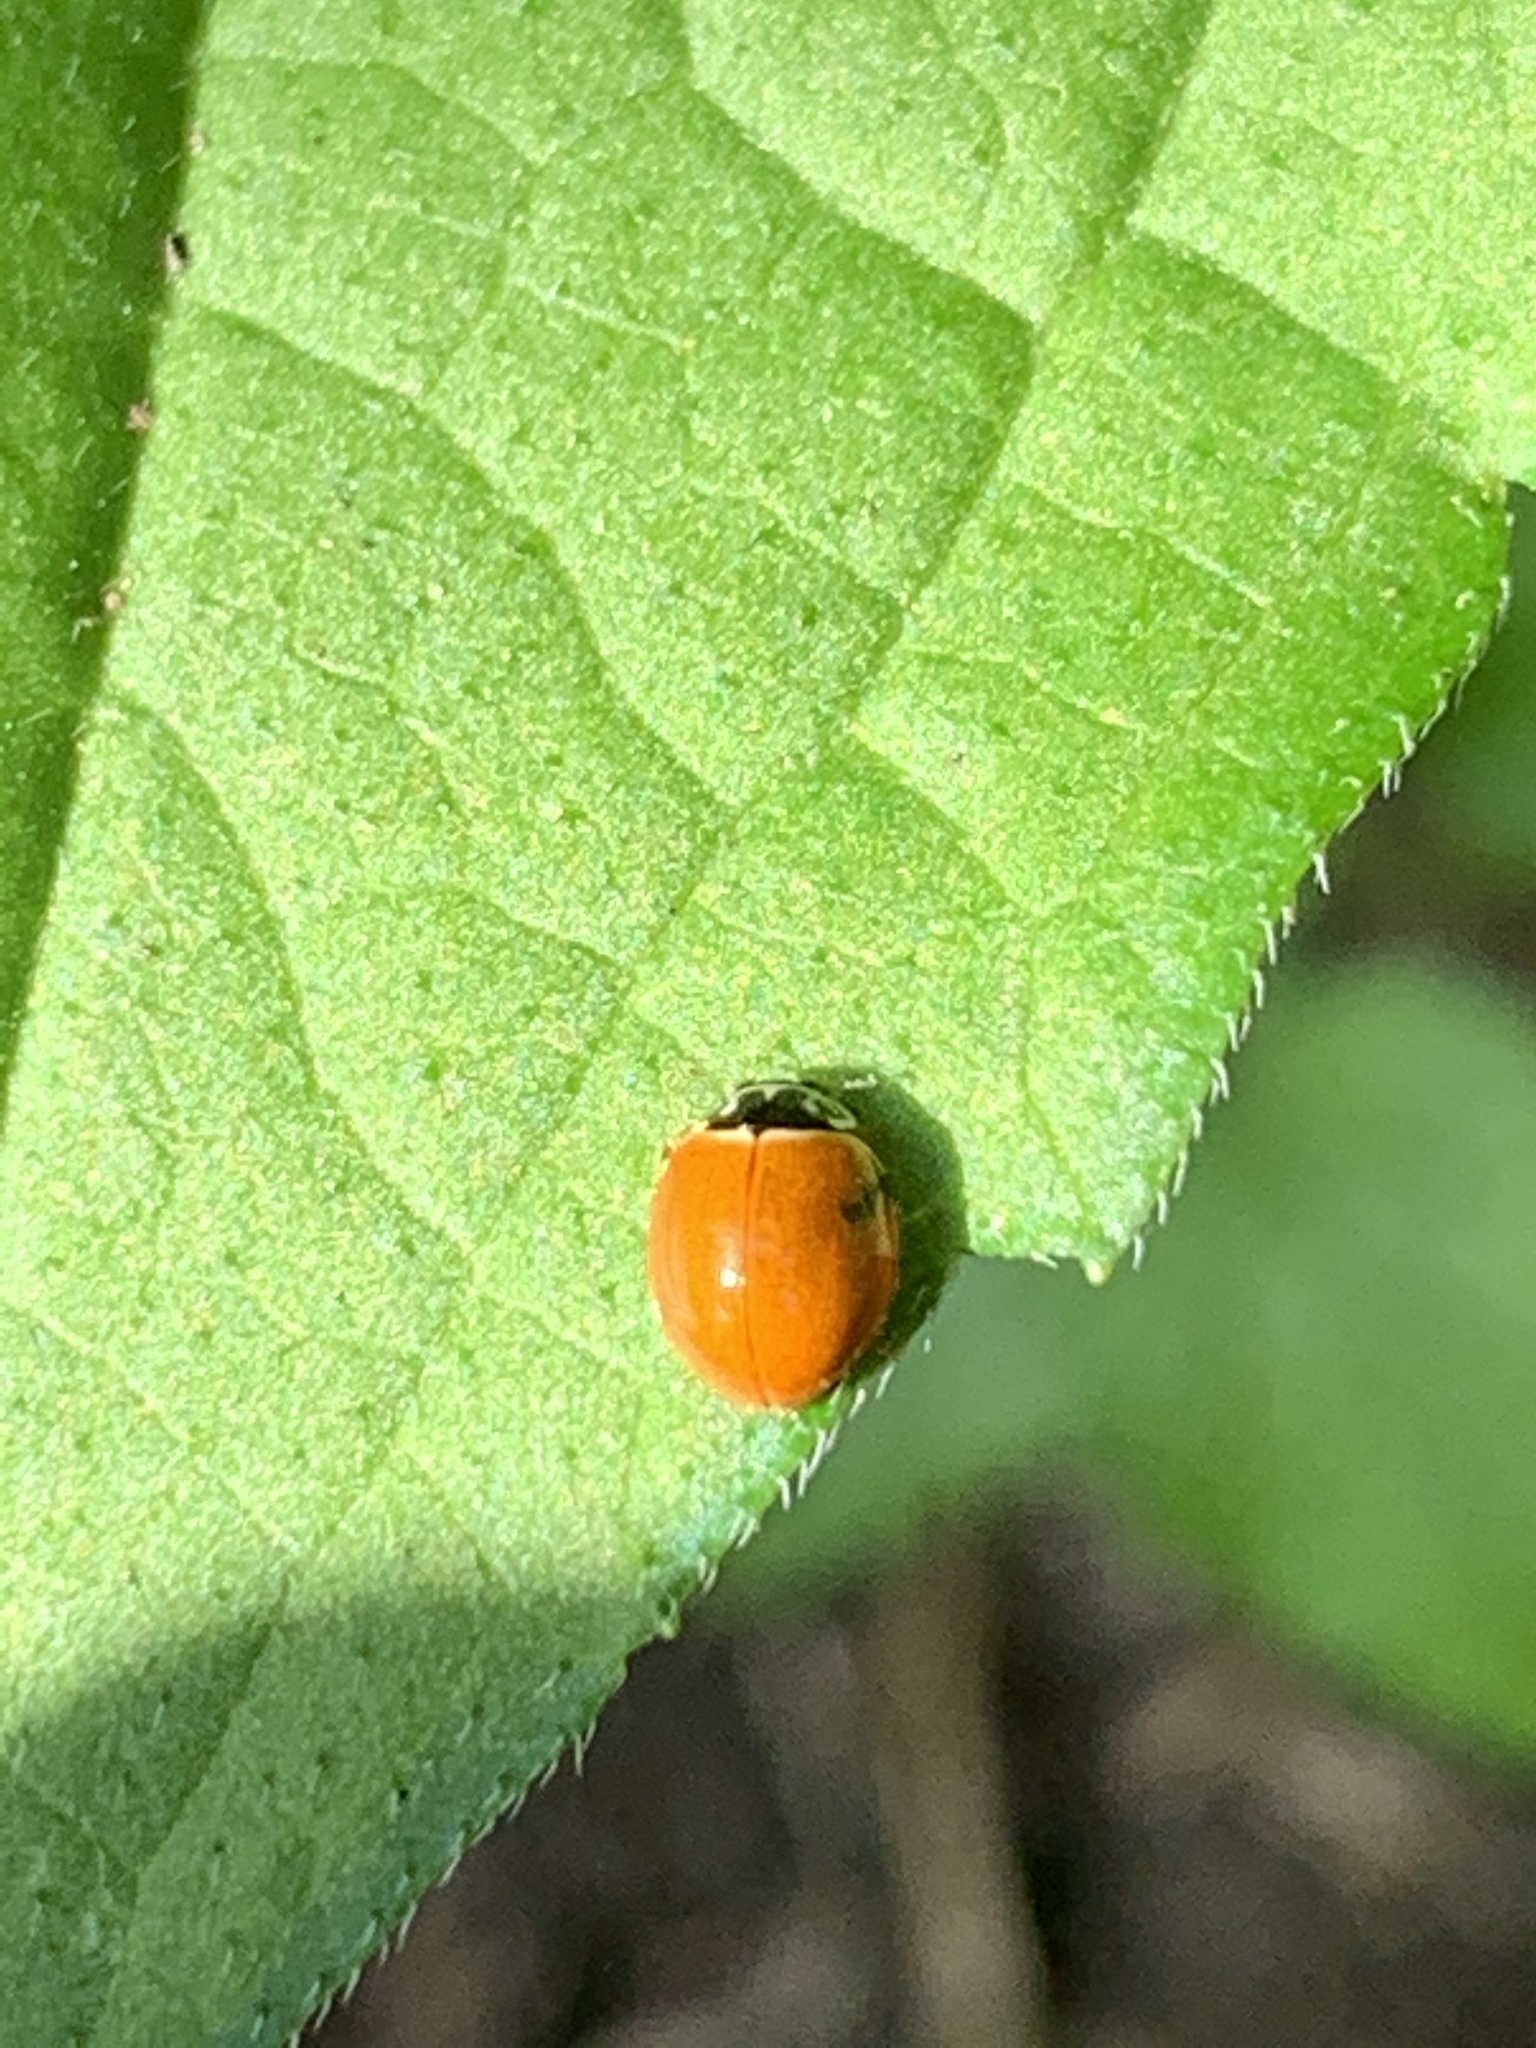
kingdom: Animalia
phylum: Arthropoda
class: Insecta
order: Coleoptera
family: Coccinellidae
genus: Cycloneda
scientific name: Cycloneda munda
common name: Polished lady beetle
